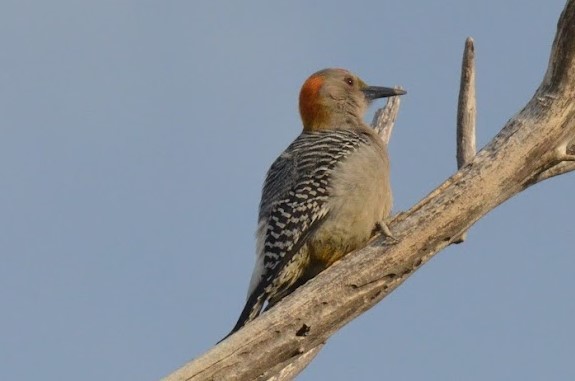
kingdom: Animalia
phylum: Chordata
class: Aves
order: Piciformes
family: Picidae
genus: Melanerpes
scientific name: Melanerpes aurifrons
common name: Golden-fronted woodpecker
